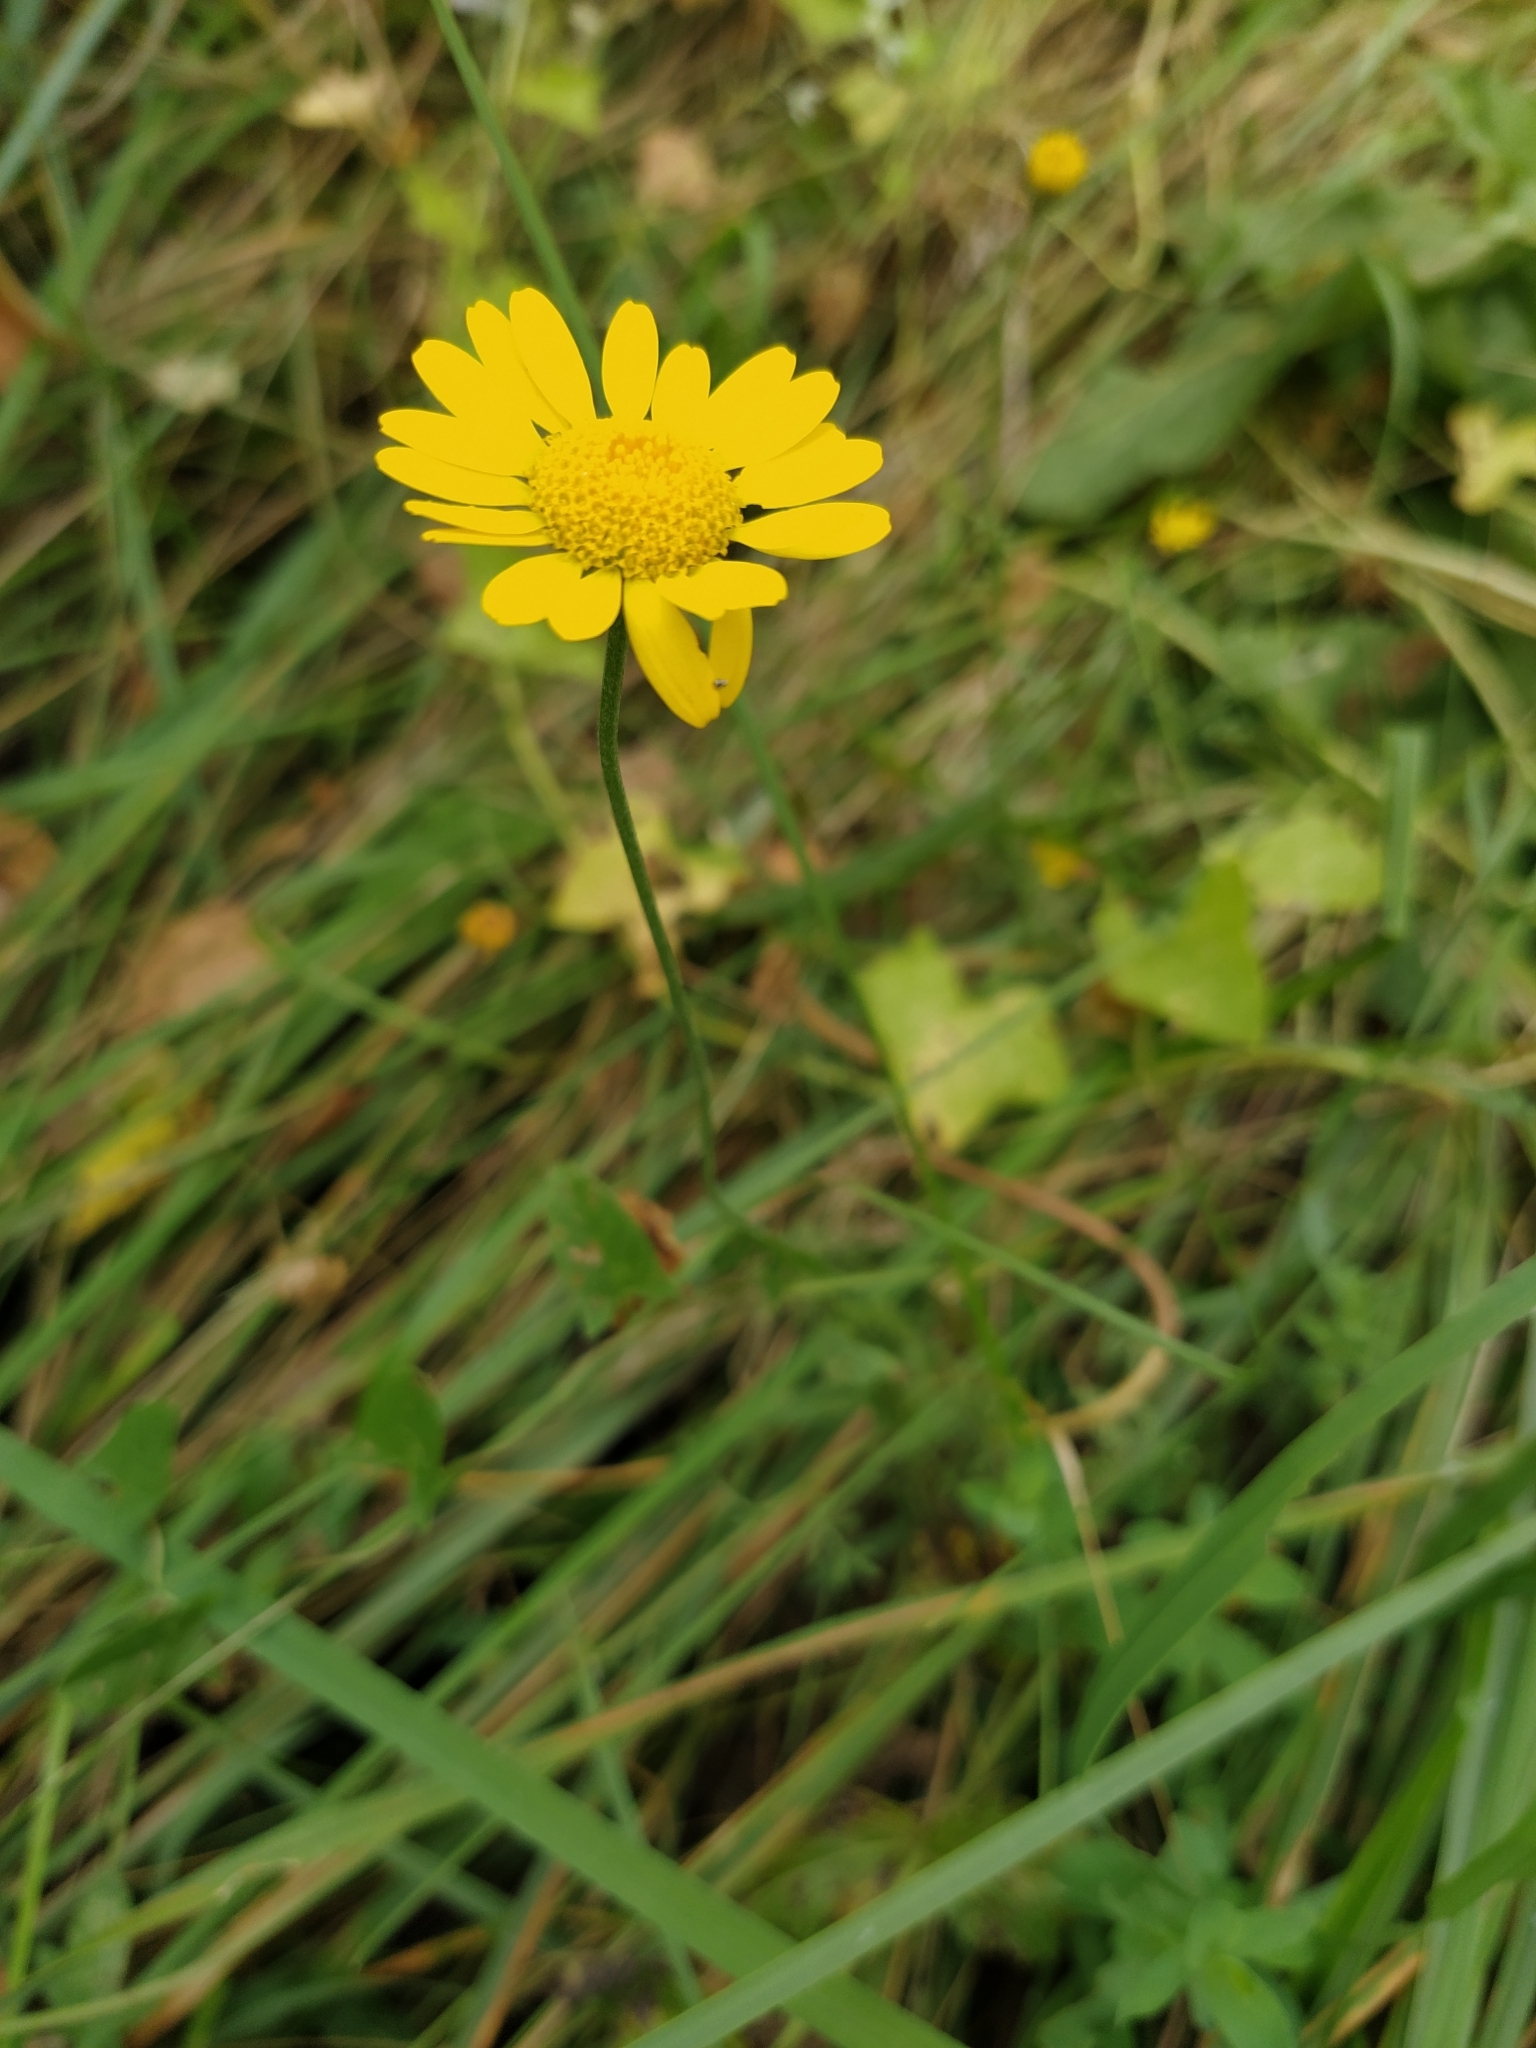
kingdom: Plantae
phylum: Tracheophyta
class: Magnoliopsida
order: Asterales
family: Asteraceae
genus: Cota
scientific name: Cota tinctoria
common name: Golden chamomile
